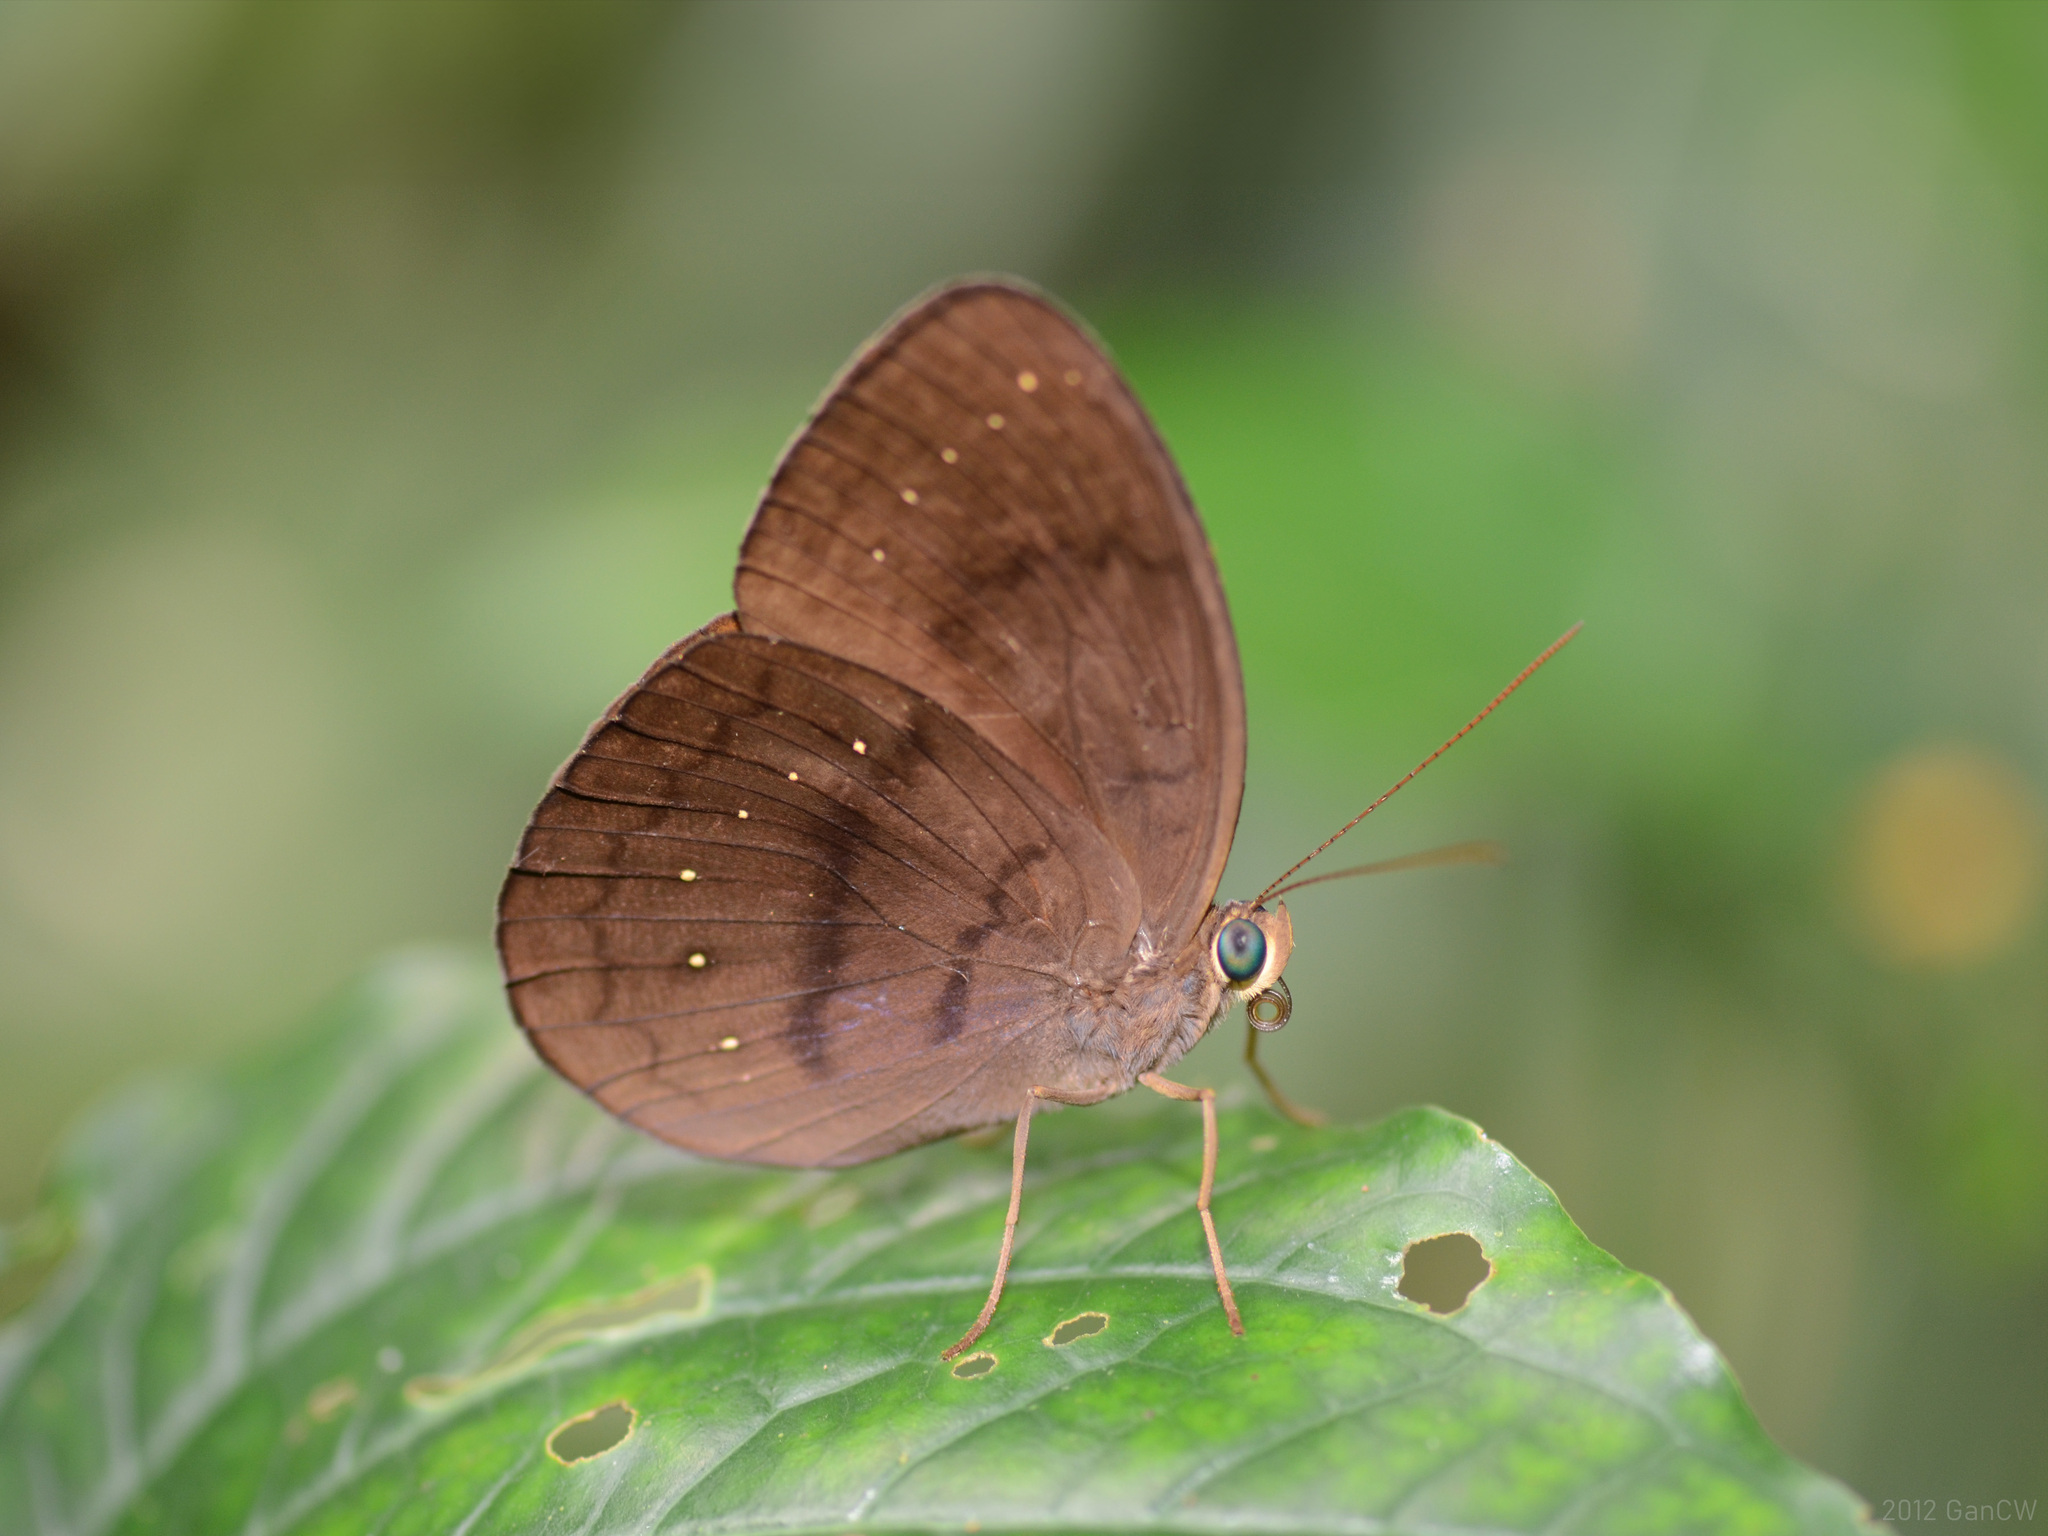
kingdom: Animalia
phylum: Arthropoda
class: Insecta
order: Lepidoptera
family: Nymphalidae
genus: Faunis
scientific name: Faunis canens
